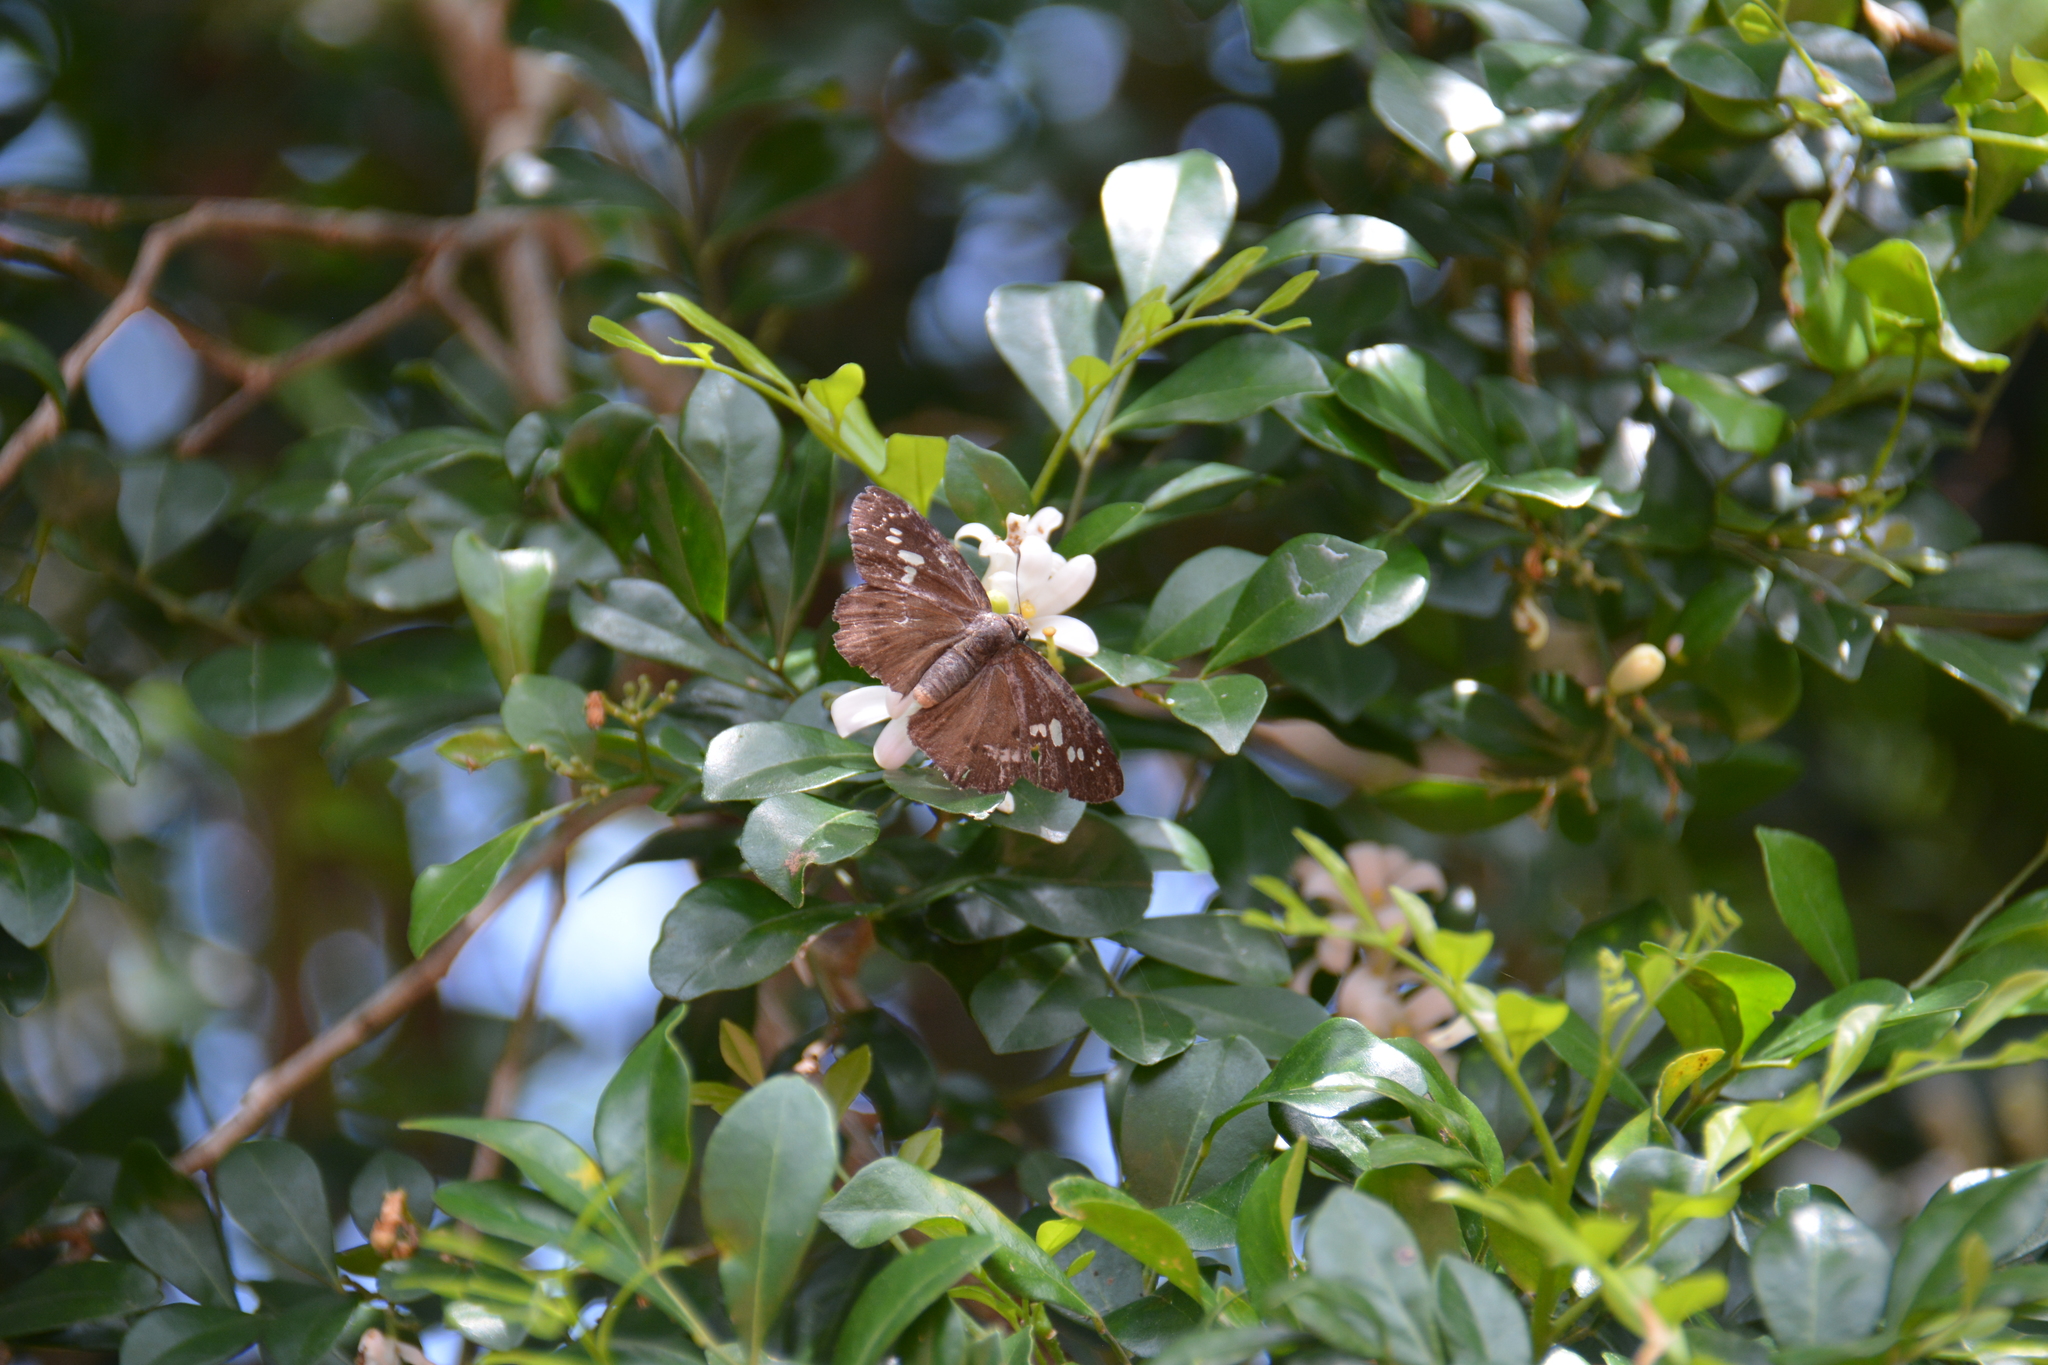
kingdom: Animalia
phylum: Arthropoda
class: Insecta
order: Lepidoptera
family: Hesperiidae
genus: Seseria
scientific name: Seseria formosana
